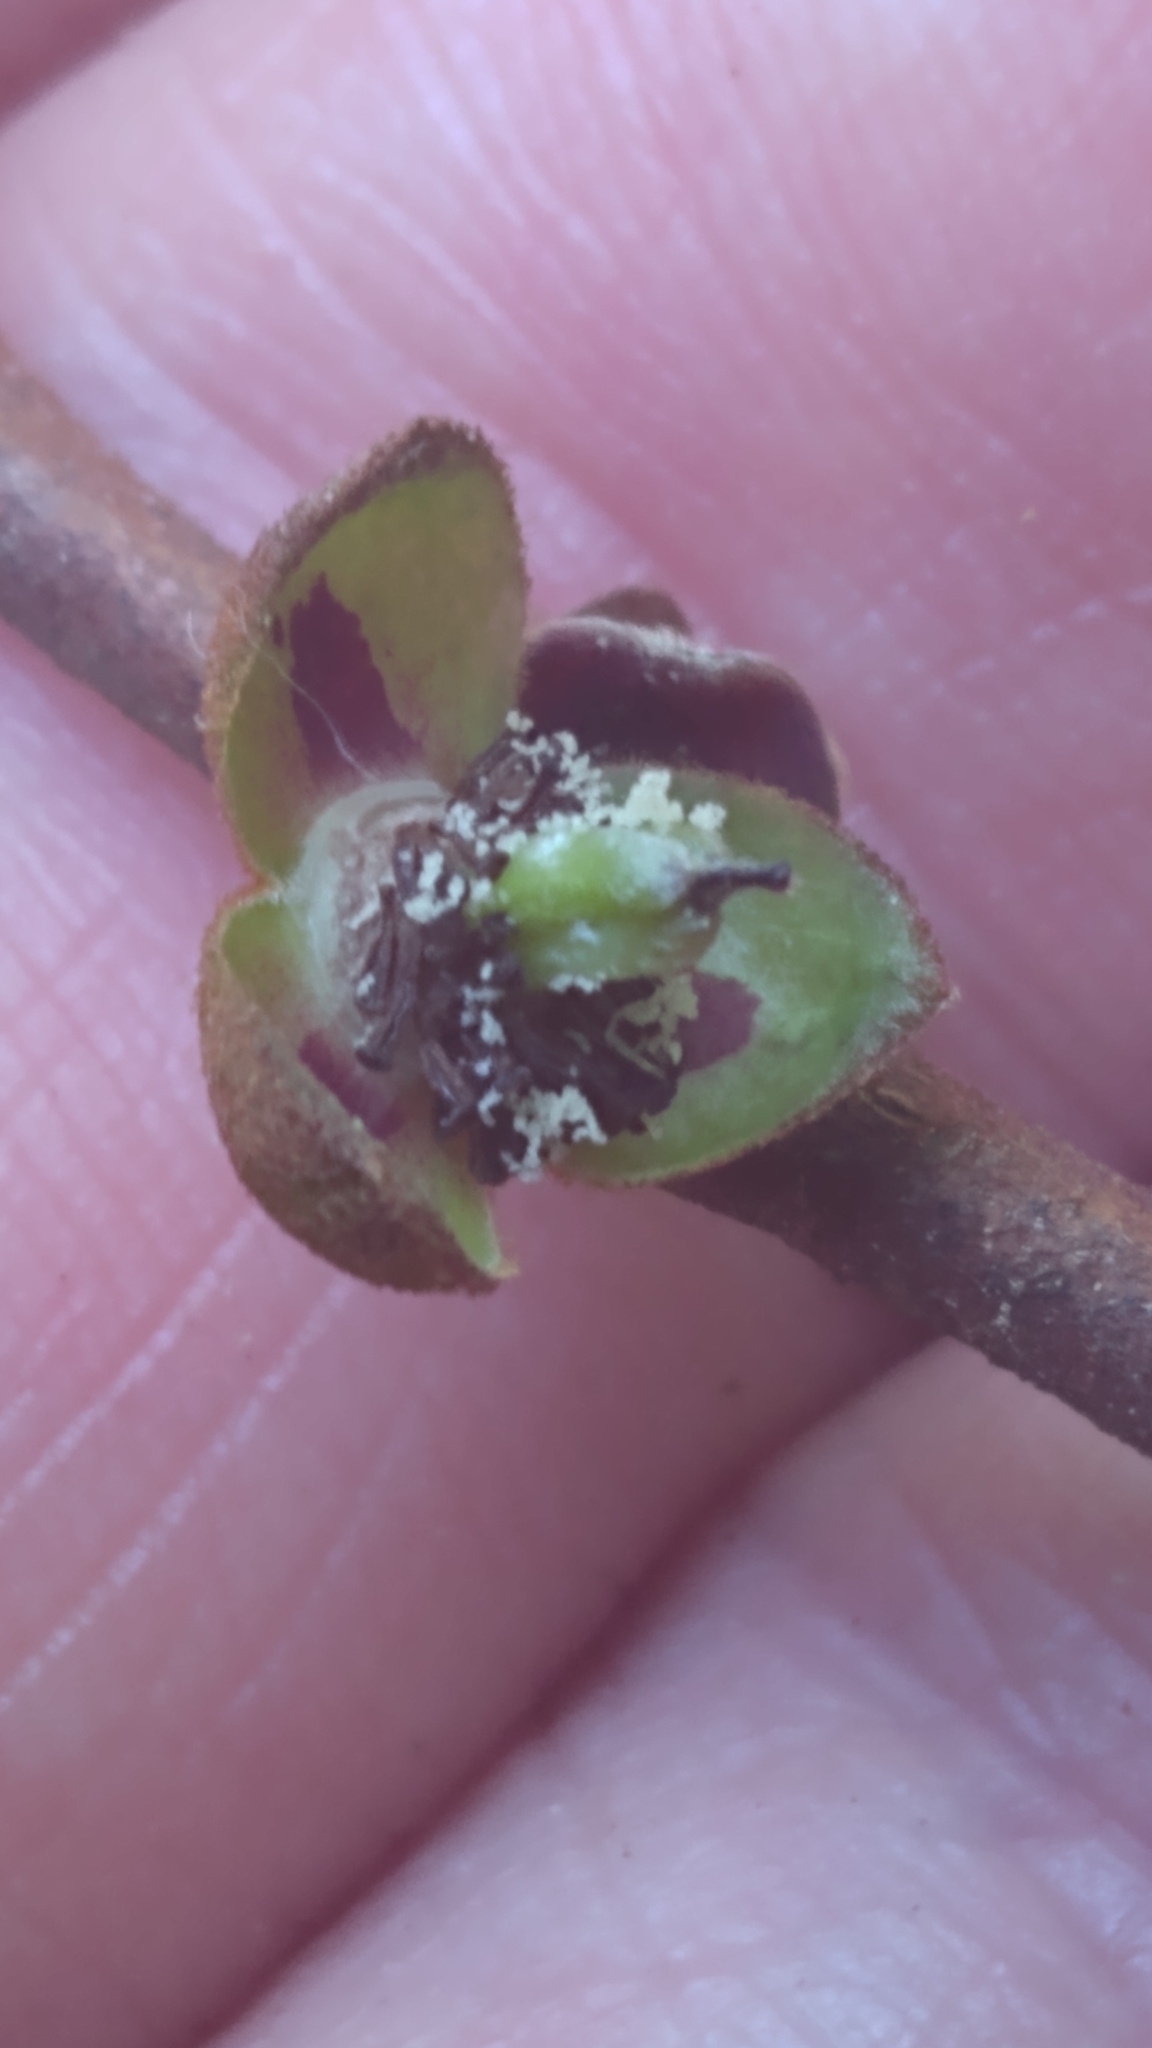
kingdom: Plantae
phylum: Tracheophyta
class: Magnoliopsida
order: Magnoliales
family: Annonaceae
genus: Asimina
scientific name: Asimina parviflora
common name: Dwarf pawpaw
